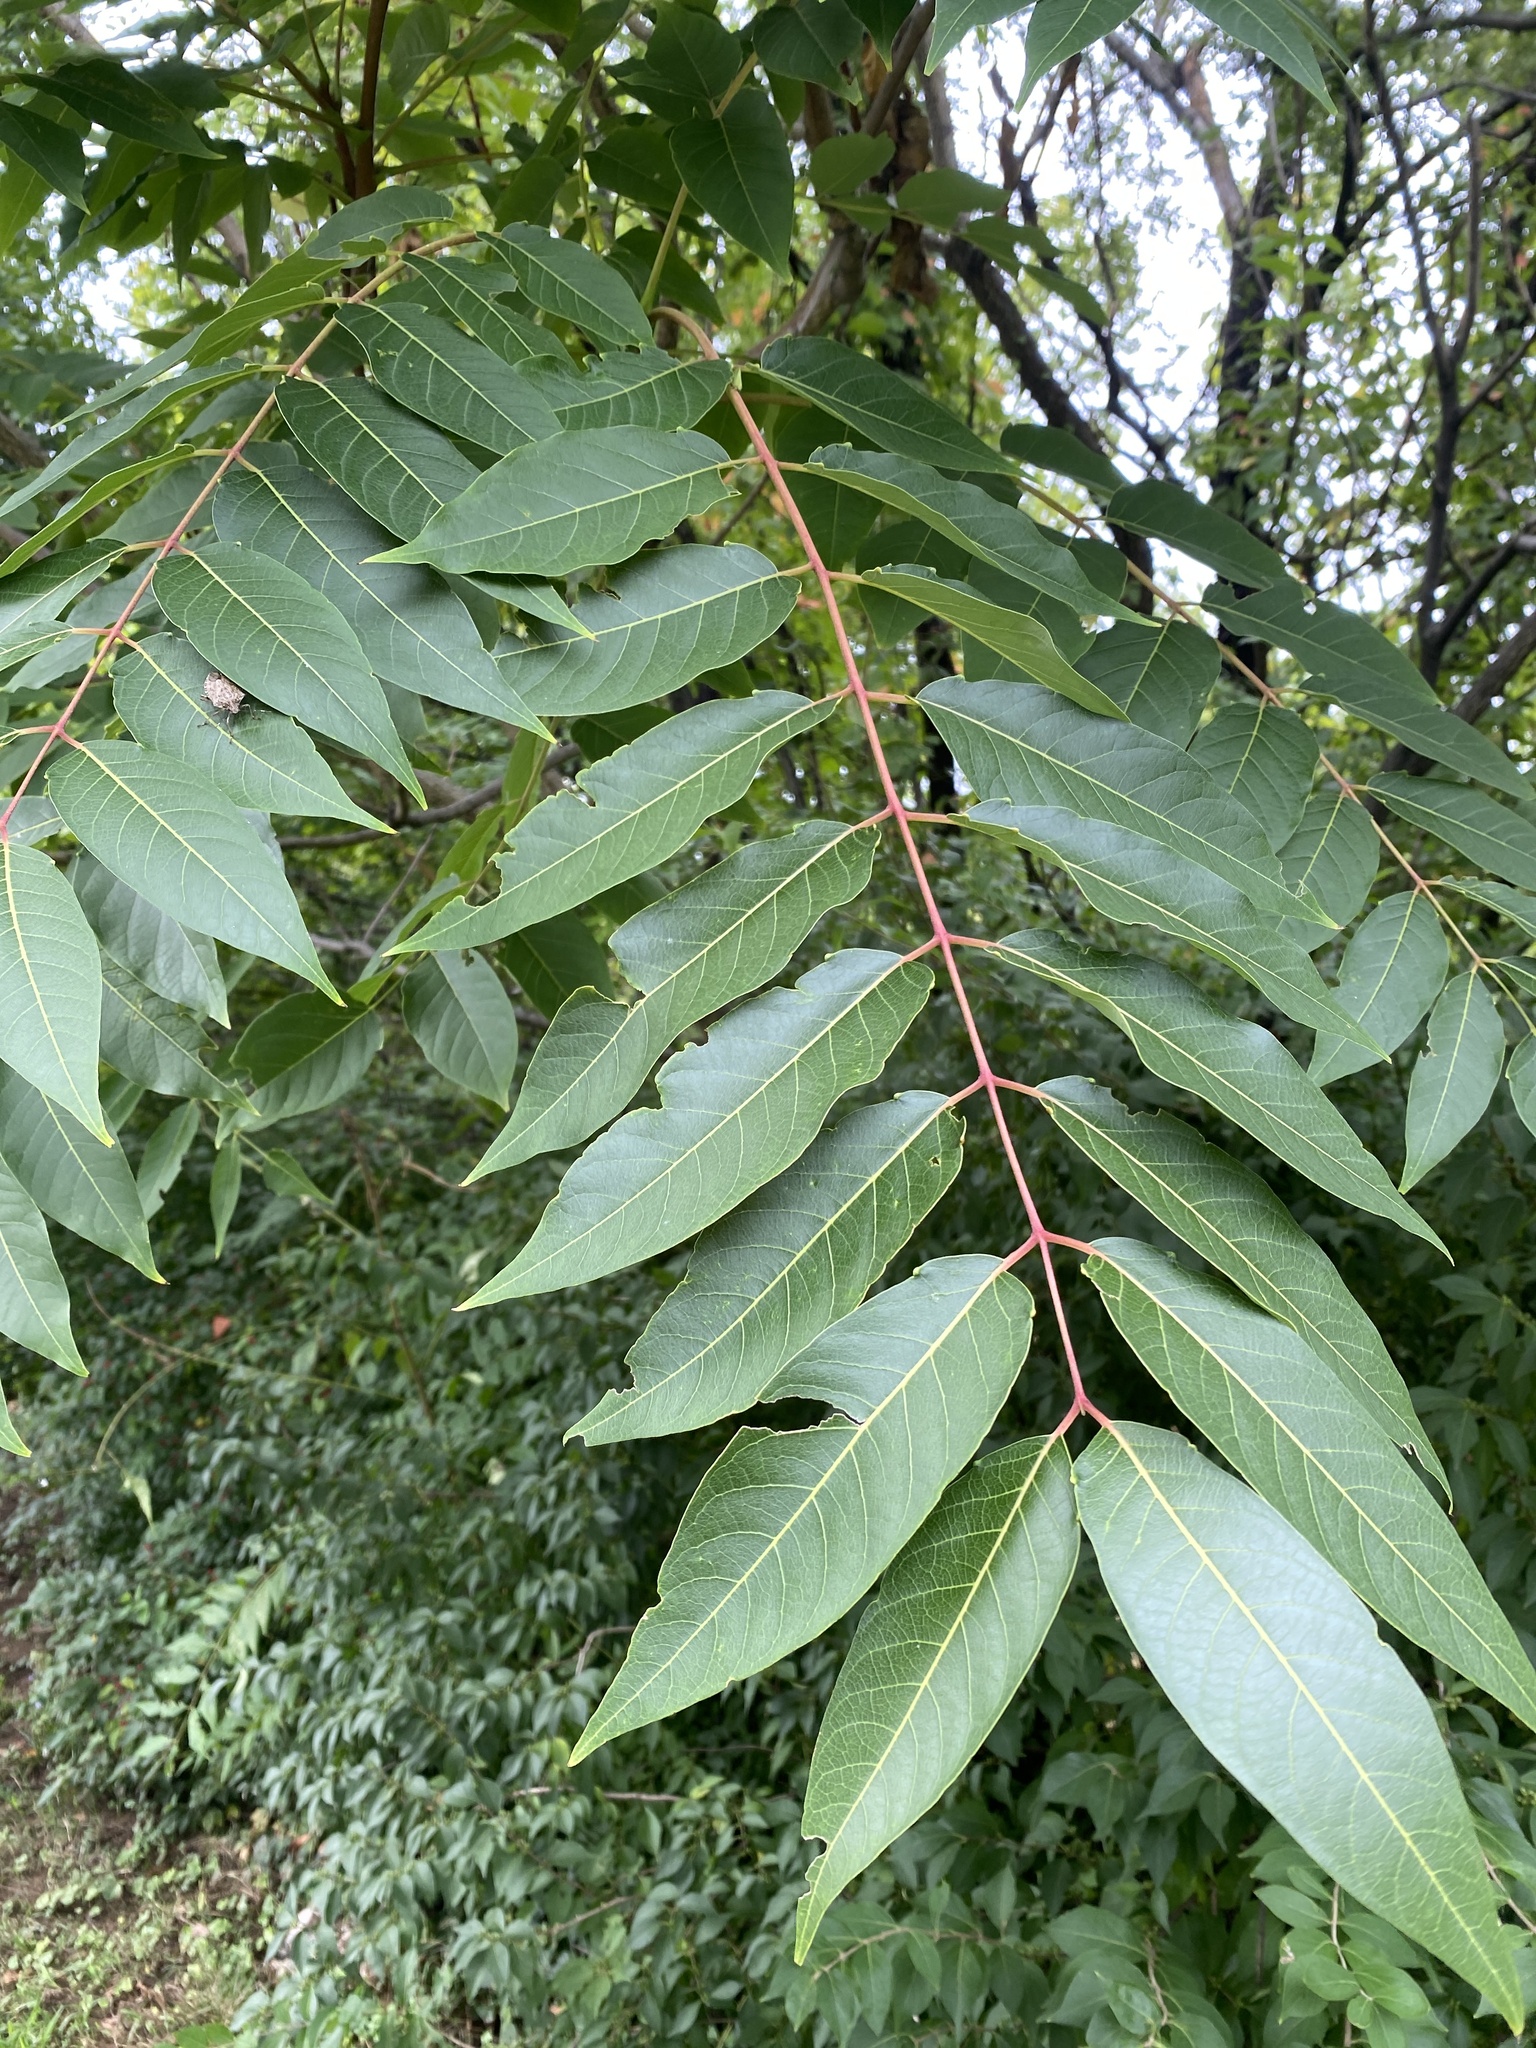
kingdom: Plantae
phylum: Tracheophyta
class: Magnoliopsida
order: Sapindales
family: Simaroubaceae
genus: Ailanthus
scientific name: Ailanthus altissima
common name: Tree-of-heaven
